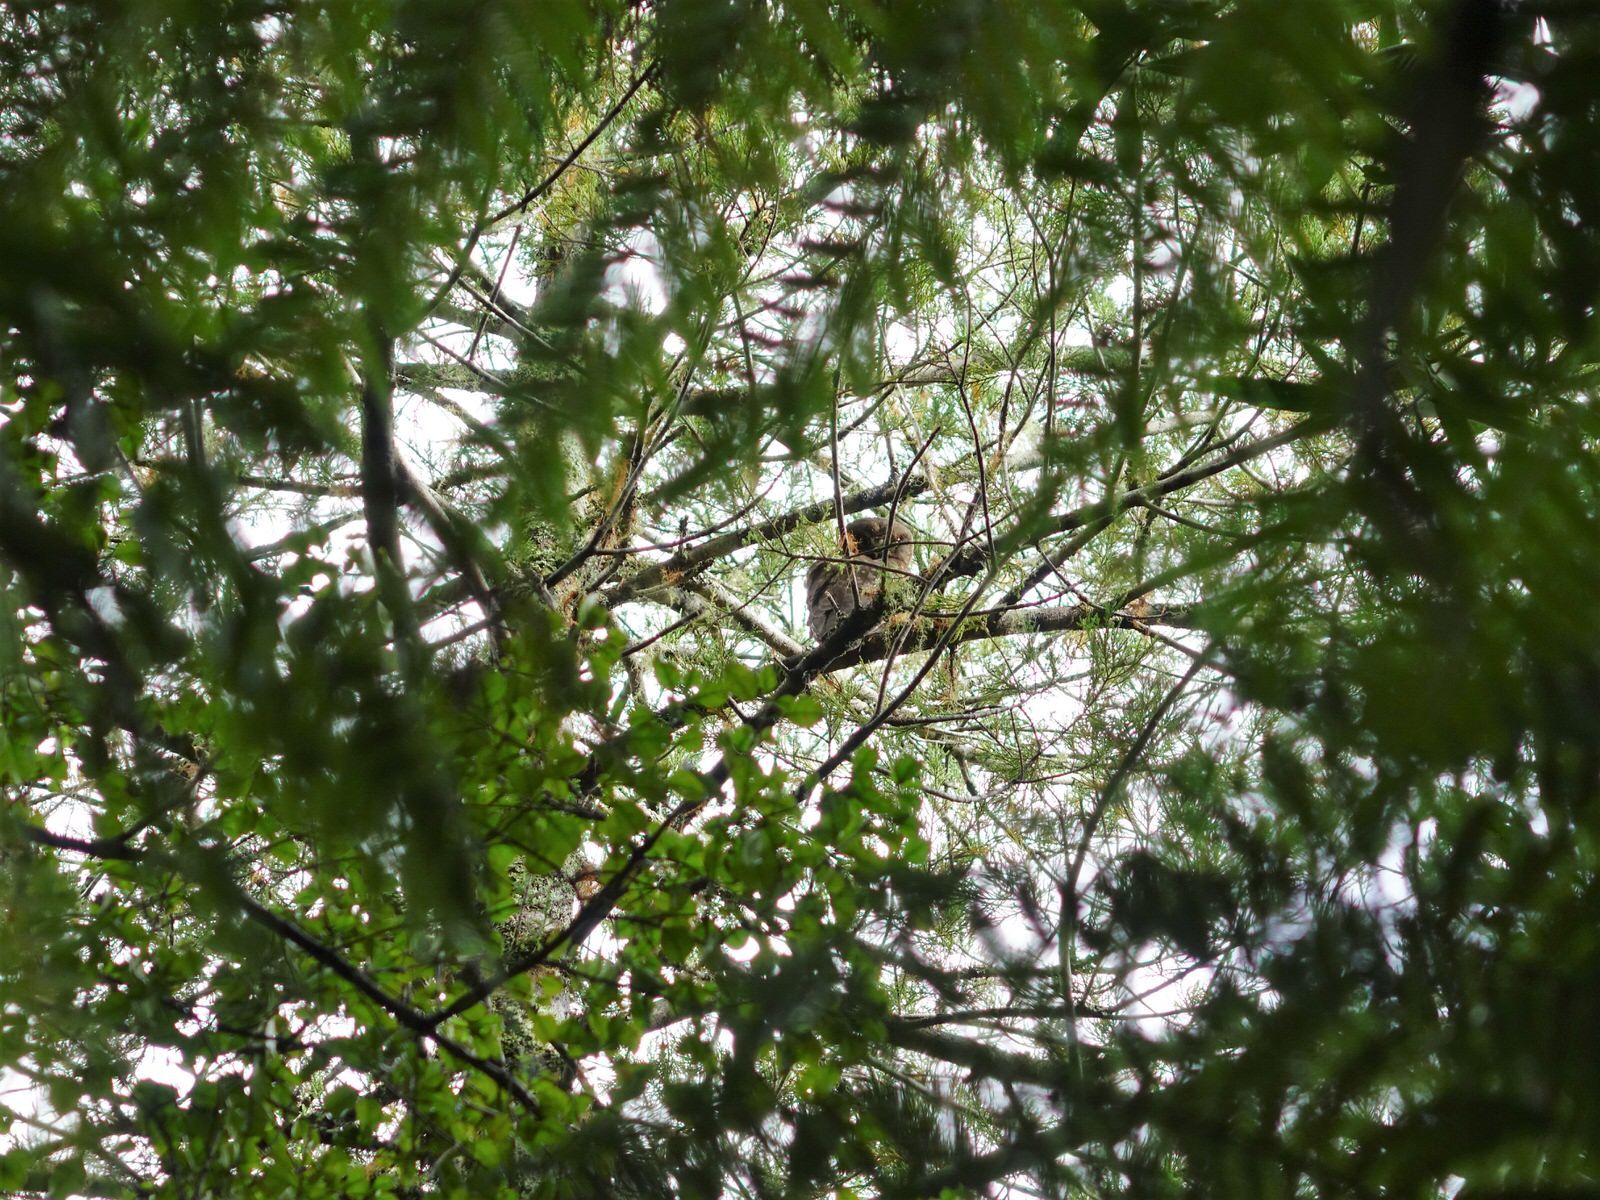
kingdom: Animalia
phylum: Chordata
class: Aves
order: Strigiformes
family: Strigidae
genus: Ninox
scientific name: Ninox novaeseelandiae
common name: Morepork
